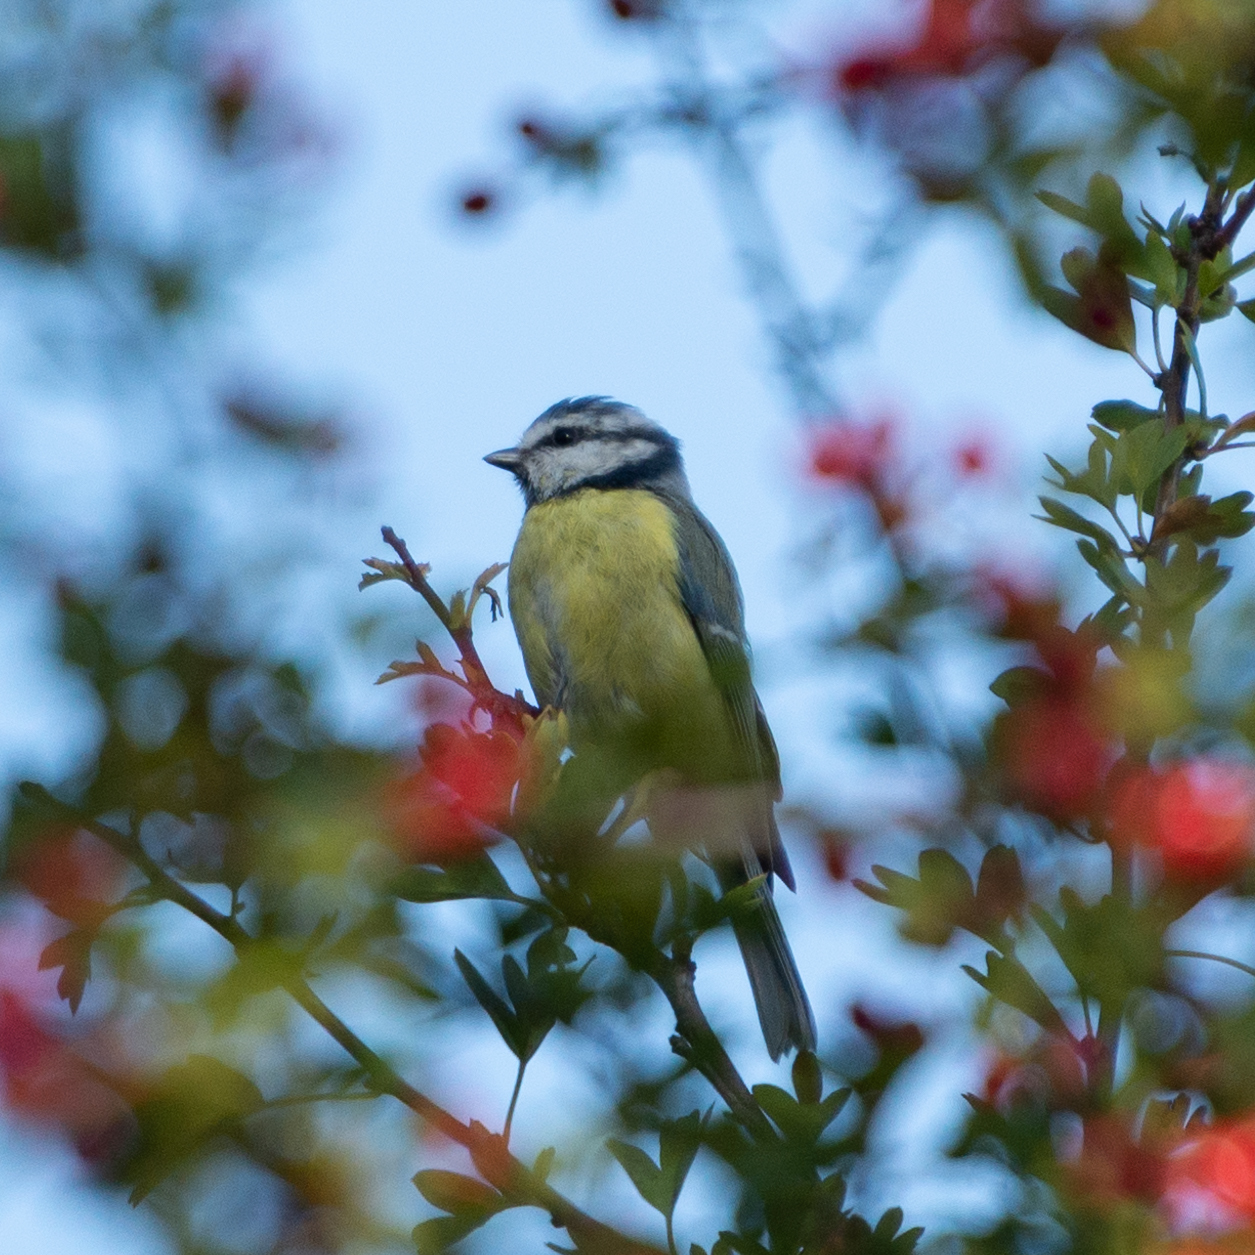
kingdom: Animalia
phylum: Chordata
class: Aves
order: Passeriformes
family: Paridae
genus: Cyanistes
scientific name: Cyanistes caeruleus
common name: Eurasian blue tit
